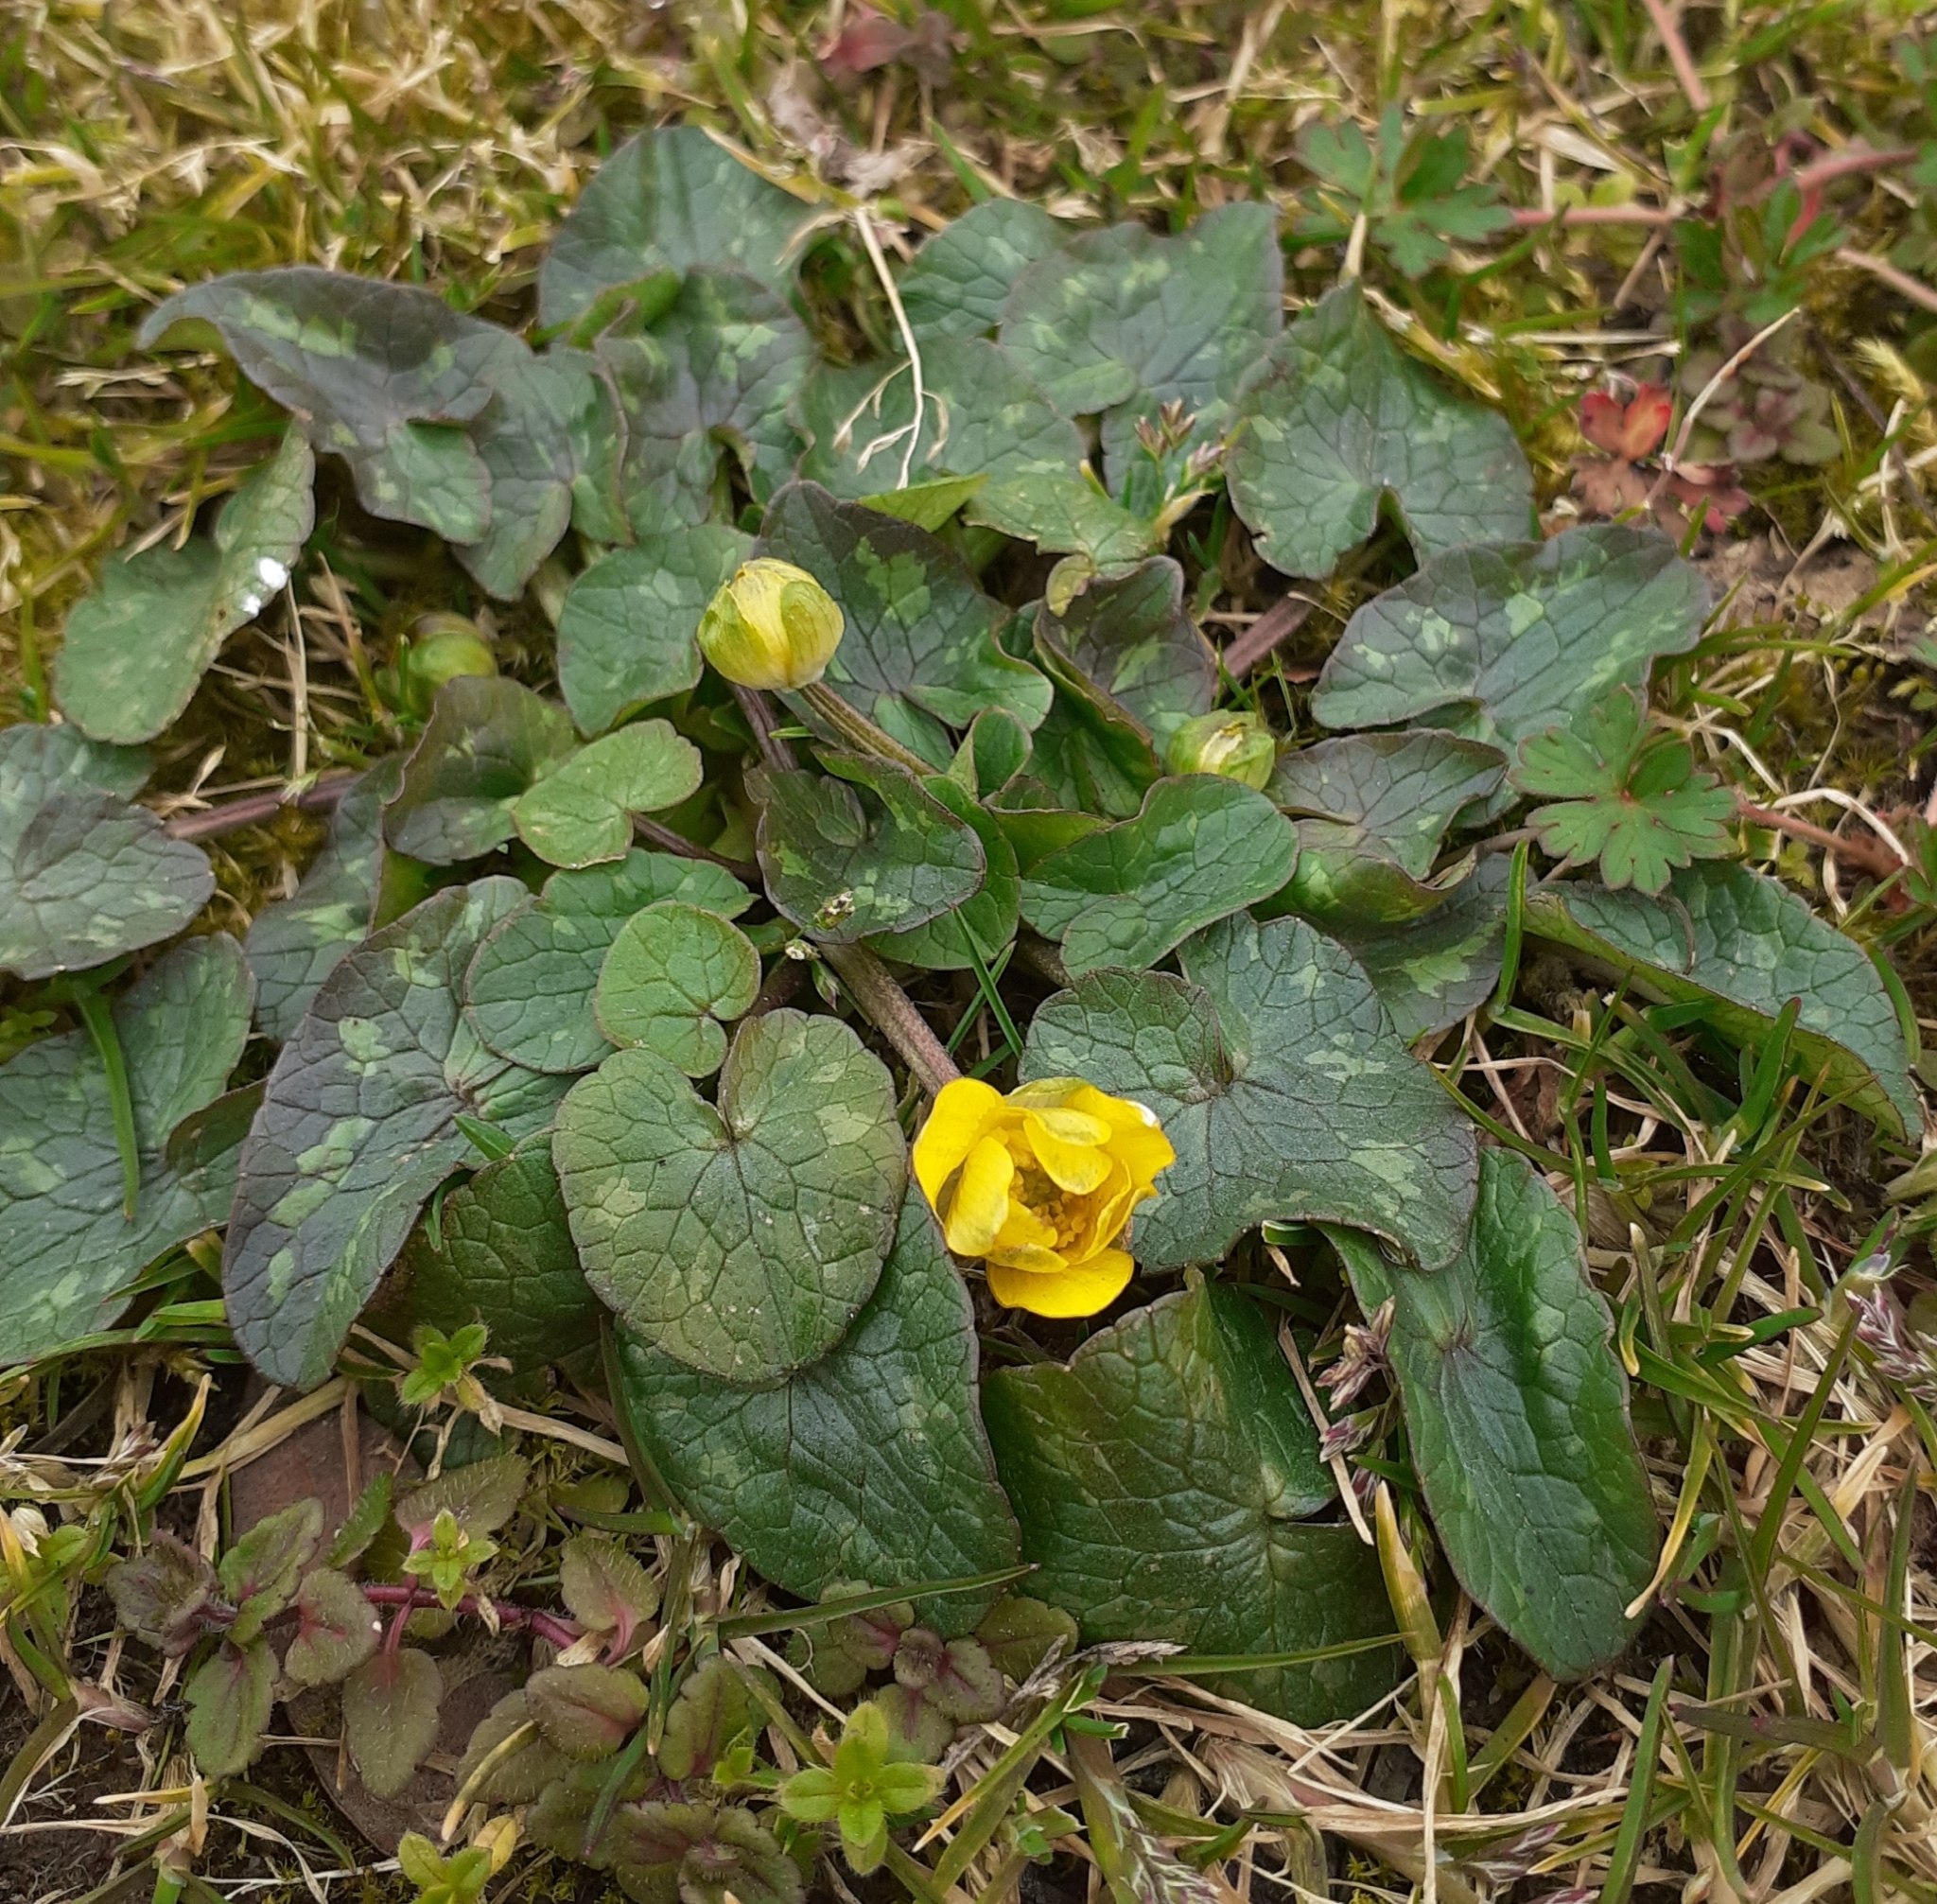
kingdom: Plantae
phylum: Tracheophyta
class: Magnoliopsida
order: Ranunculales
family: Ranunculaceae
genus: Ficaria
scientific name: Ficaria verna
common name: Lesser celandine
